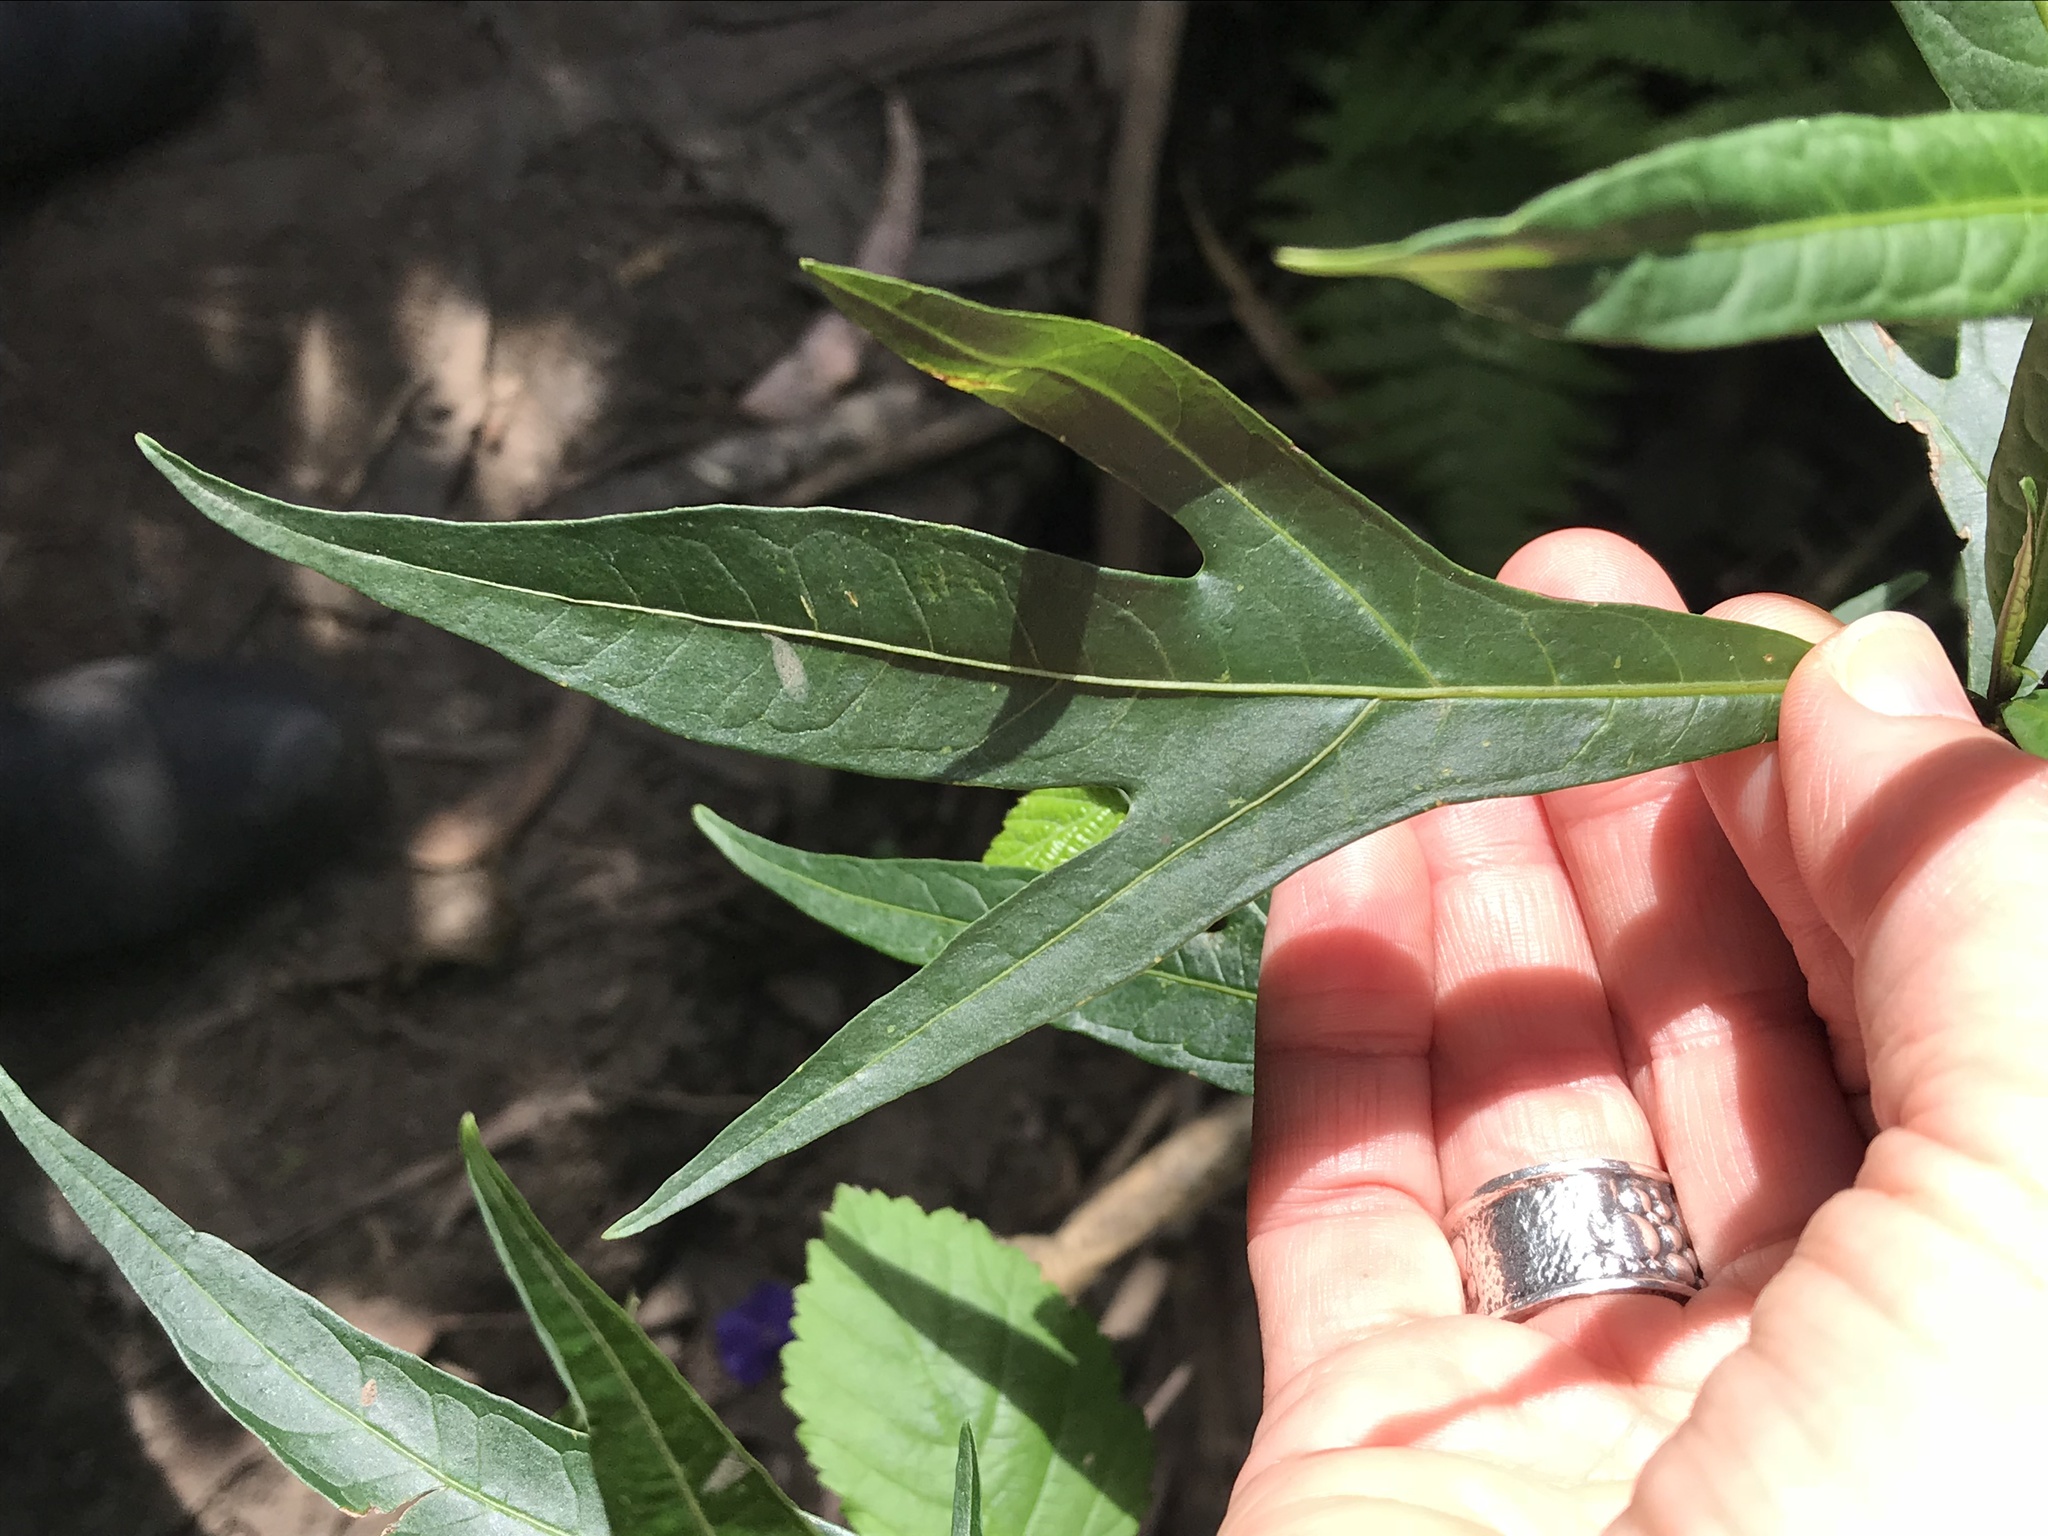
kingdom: Plantae
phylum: Tracheophyta
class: Magnoliopsida
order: Solanales
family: Solanaceae
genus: Solanum
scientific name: Solanum laciniatum
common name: Kangaroo-apple
